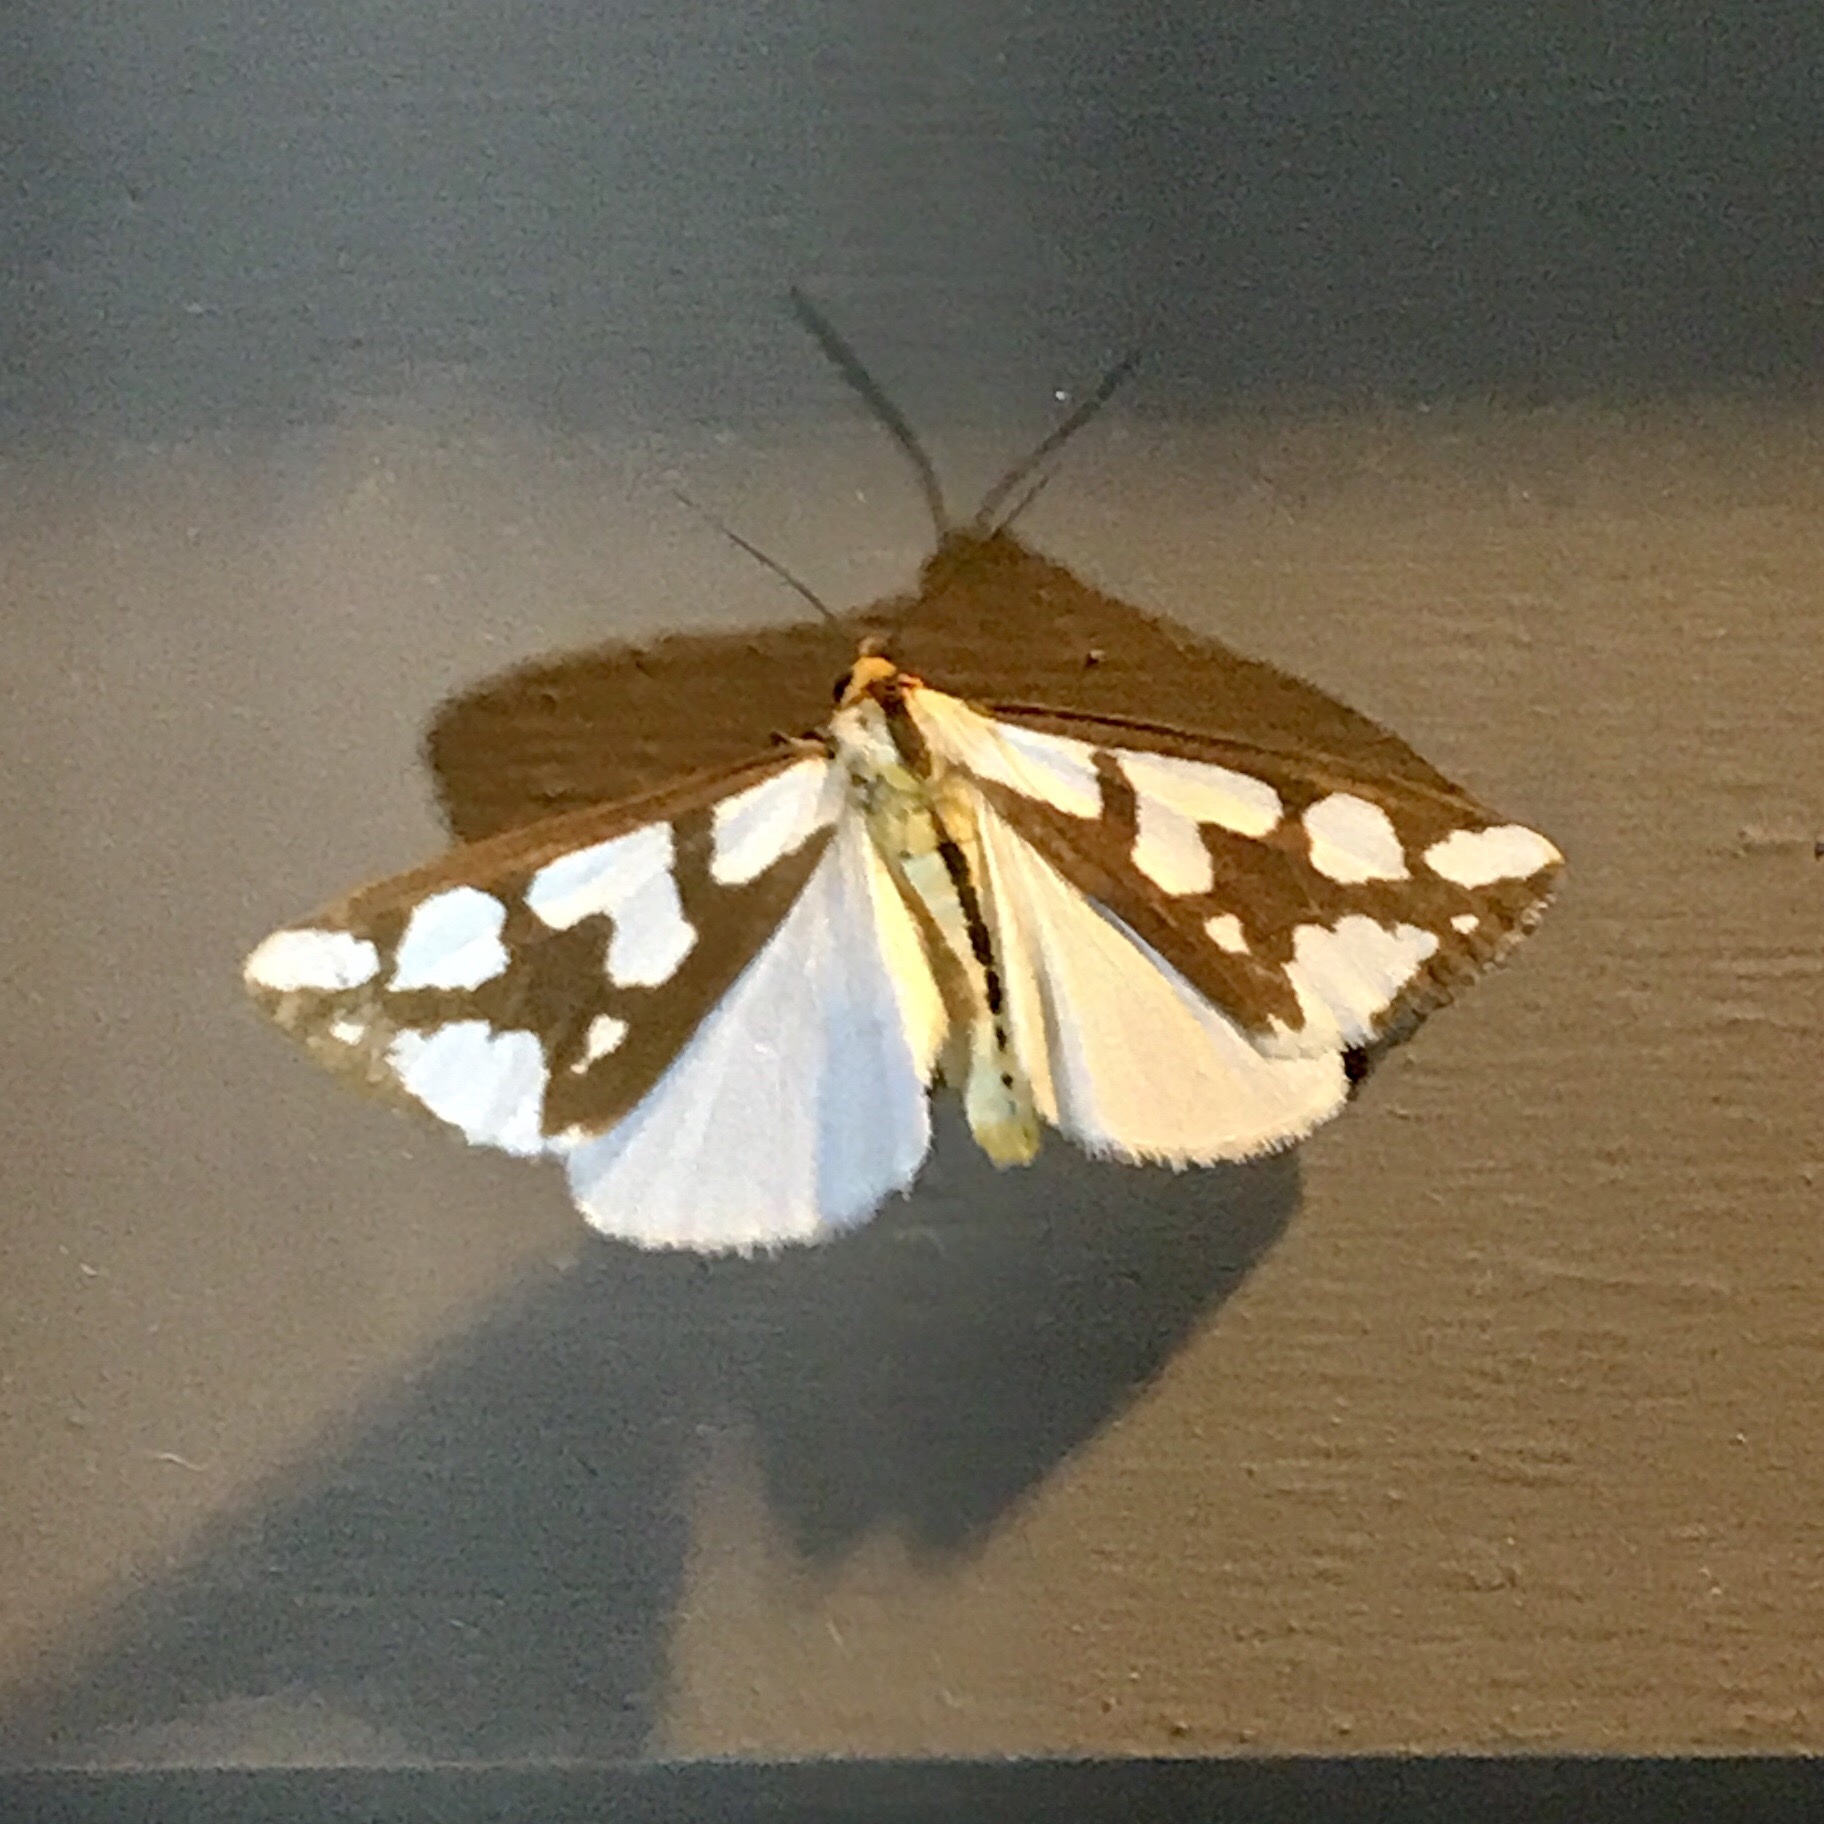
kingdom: Animalia
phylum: Arthropoda
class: Insecta
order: Lepidoptera
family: Erebidae
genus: Haploa
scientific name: Haploa confusa
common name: Confused haploa moth
